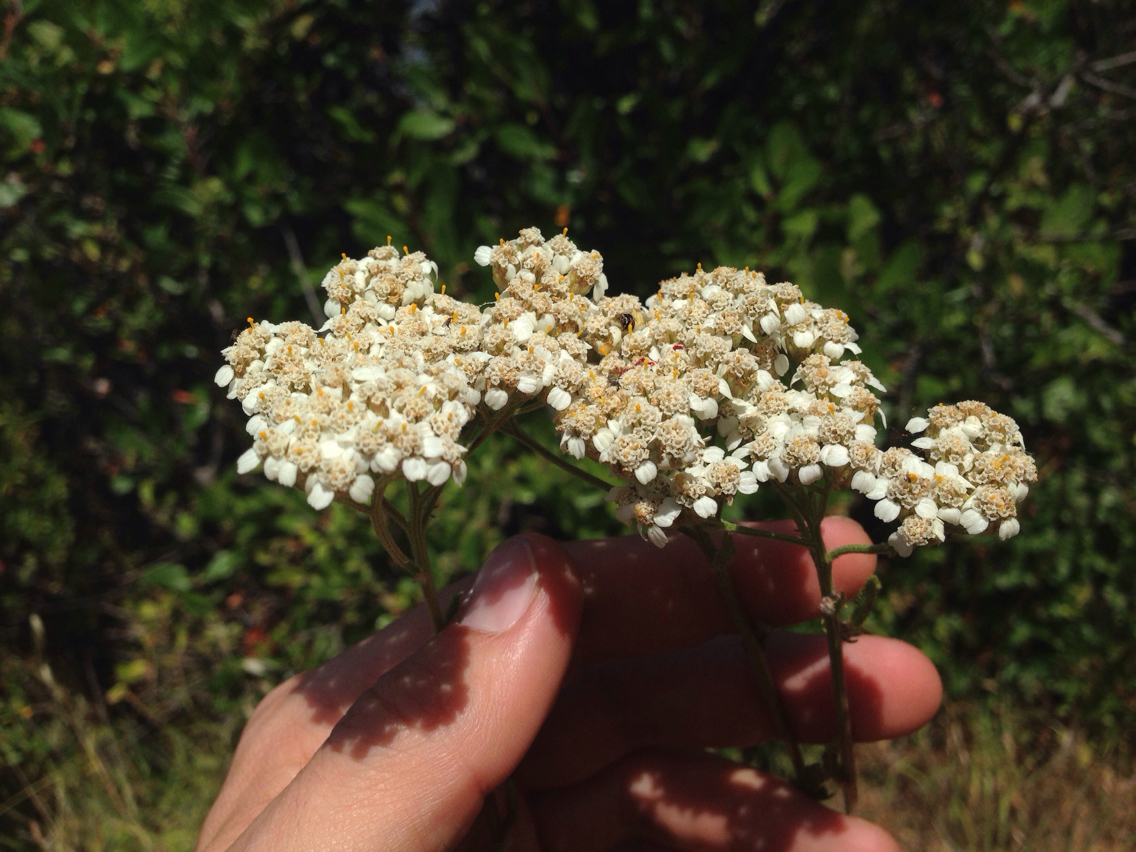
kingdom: Plantae
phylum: Tracheophyta
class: Magnoliopsida
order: Asterales
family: Asteraceae
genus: Achillea
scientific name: Achillea millefolium
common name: Yarrow
